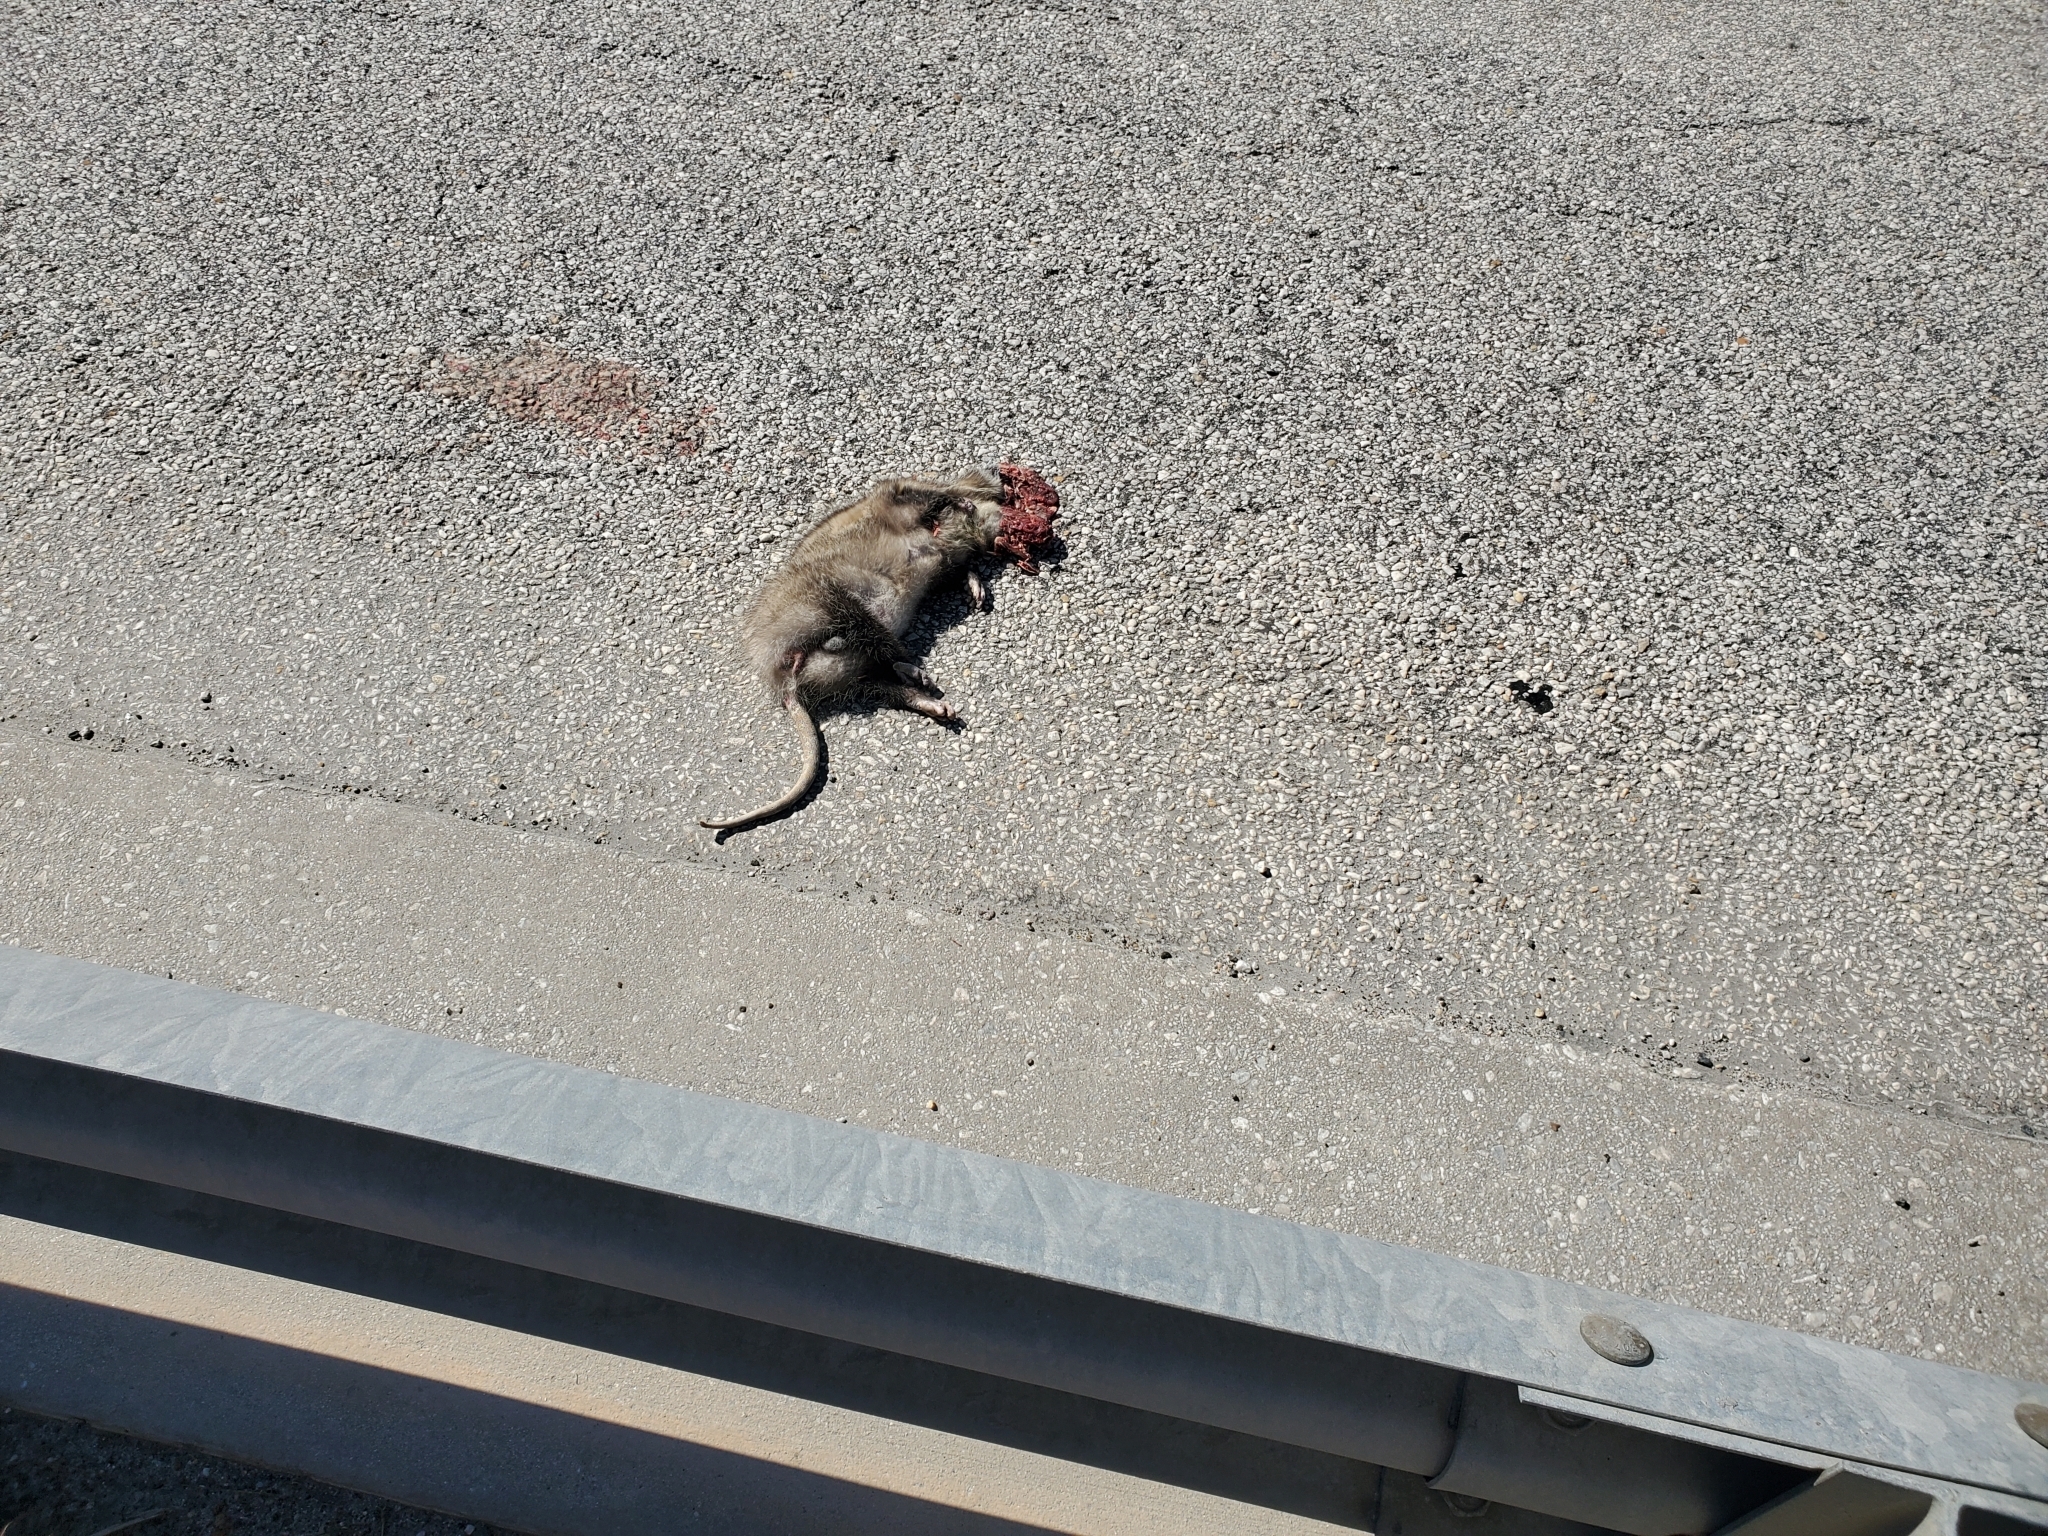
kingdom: Animalia
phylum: Chordata
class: Mammalia
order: Didelphimorphia
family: Didelphidae
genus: Didelphis
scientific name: Didelphis virginiana
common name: Virginia opossum
